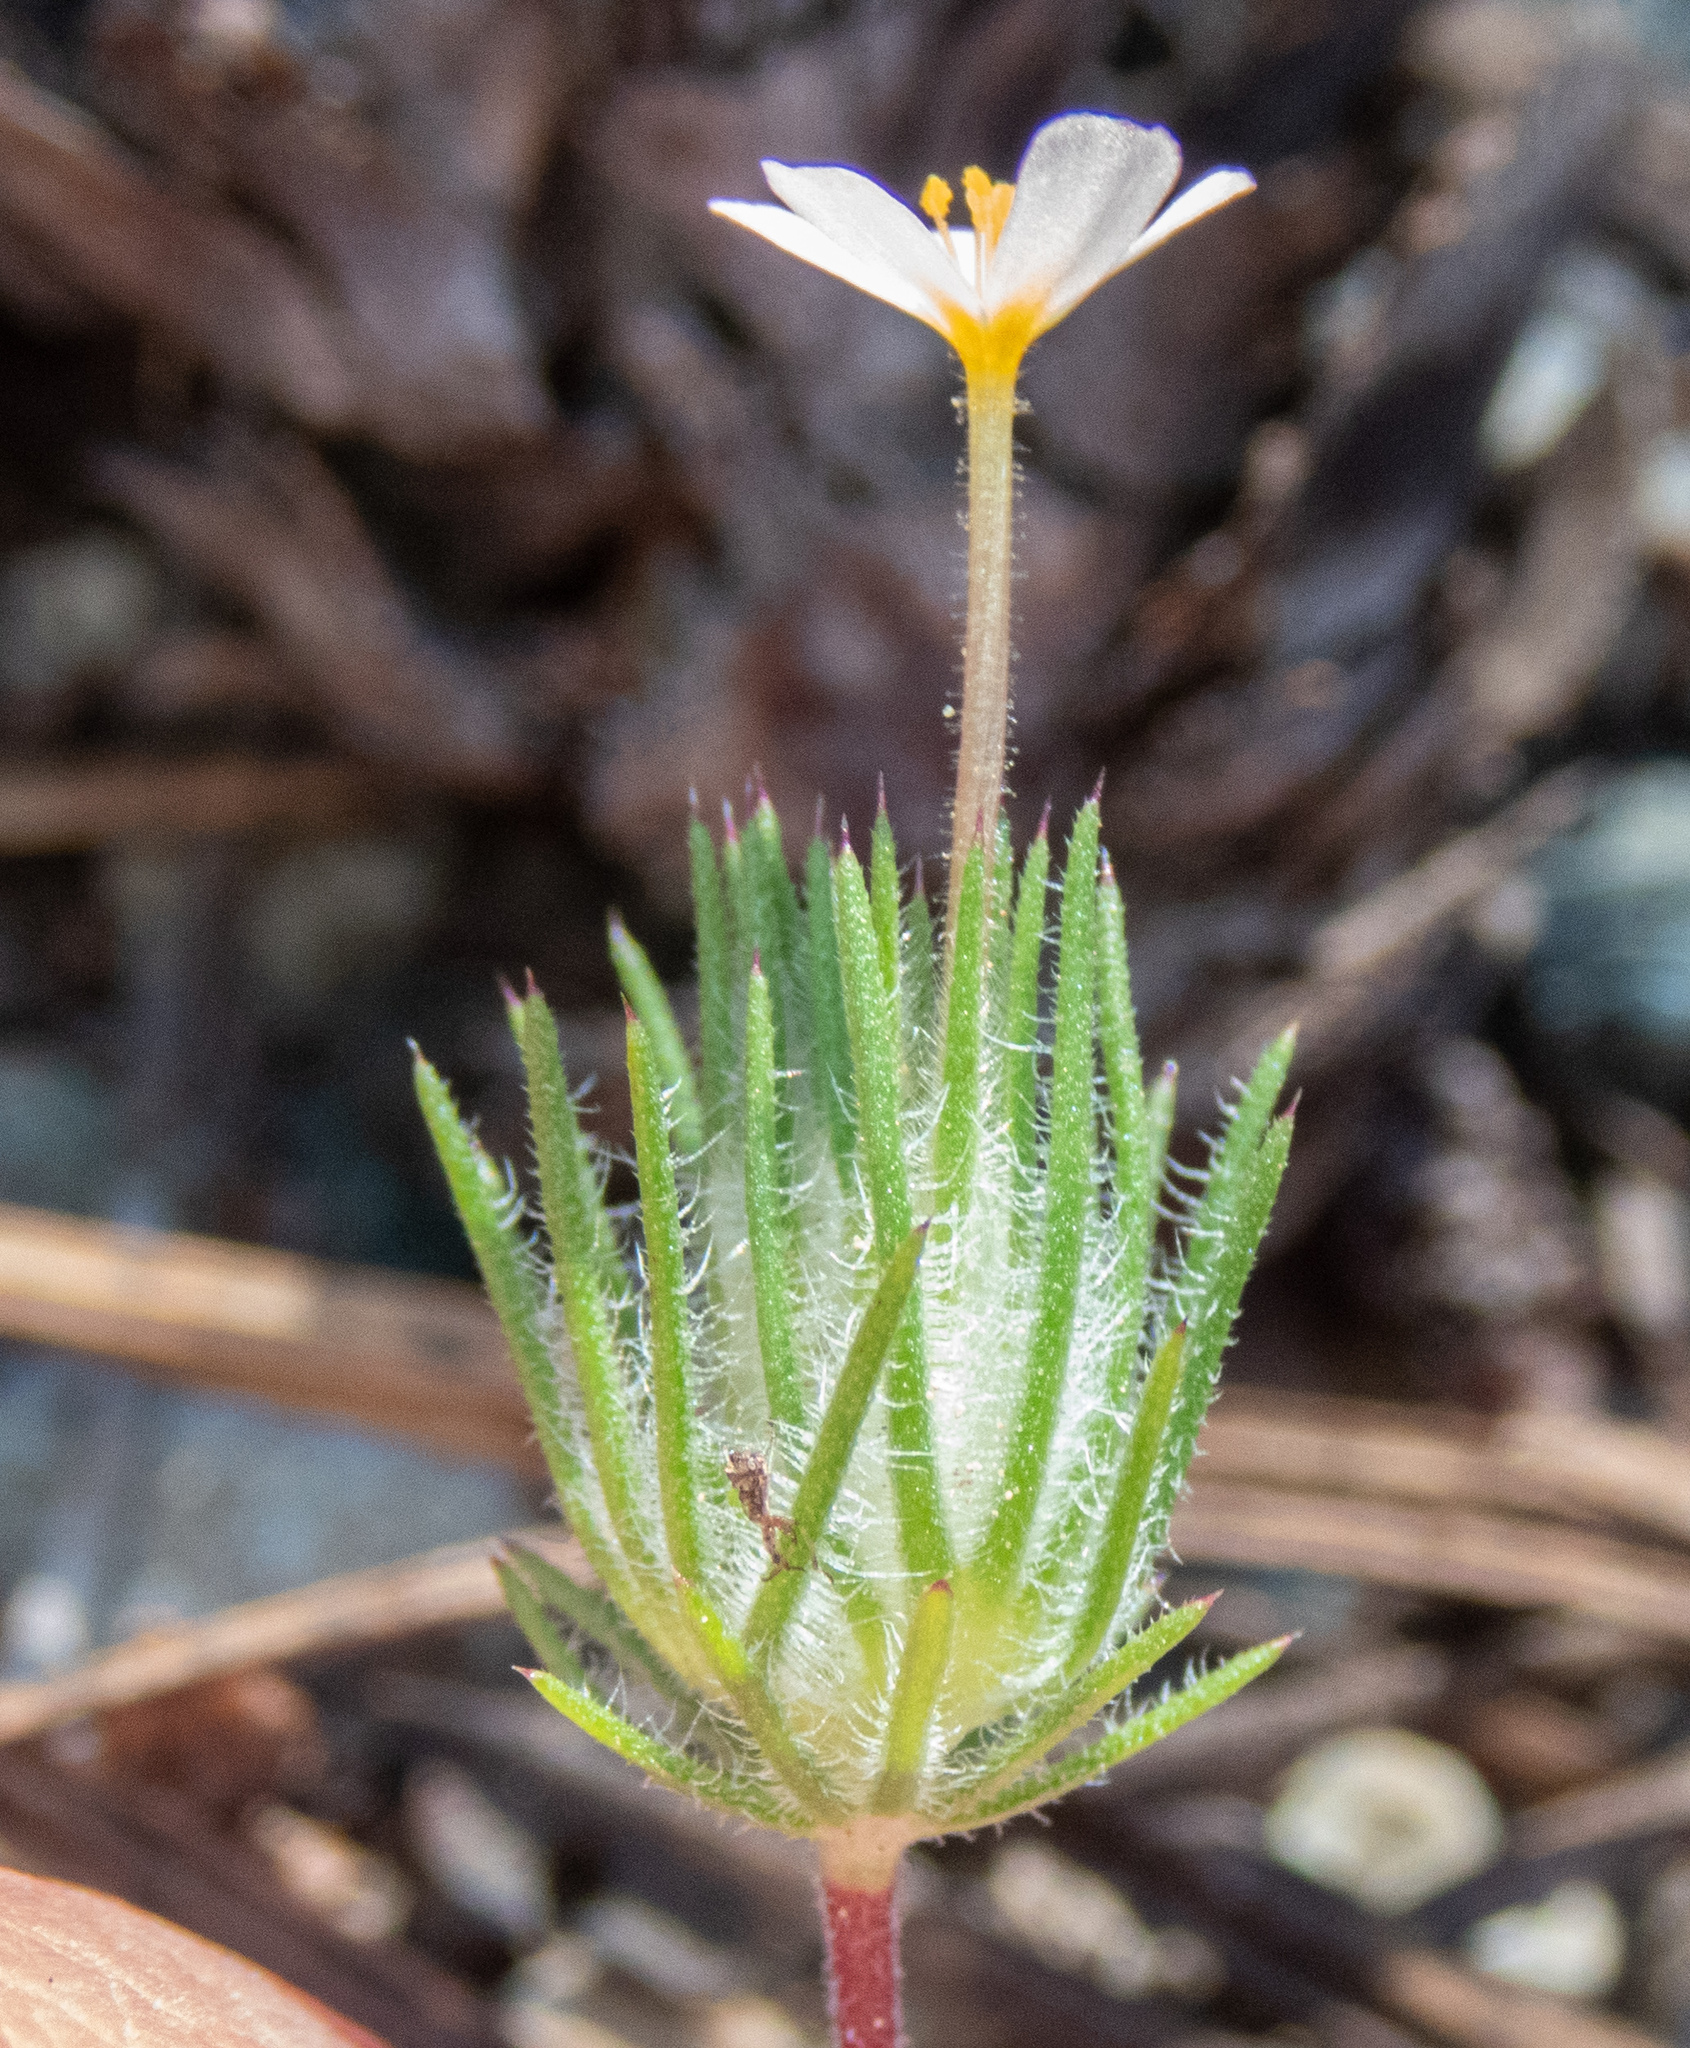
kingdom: Plantae
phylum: Tracheophyta
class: Magnoliopsida
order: Ericales
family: Polemoniaceae
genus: Leptosiphon
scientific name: Leptosiphon ciliatus
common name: Whiskerbrush
